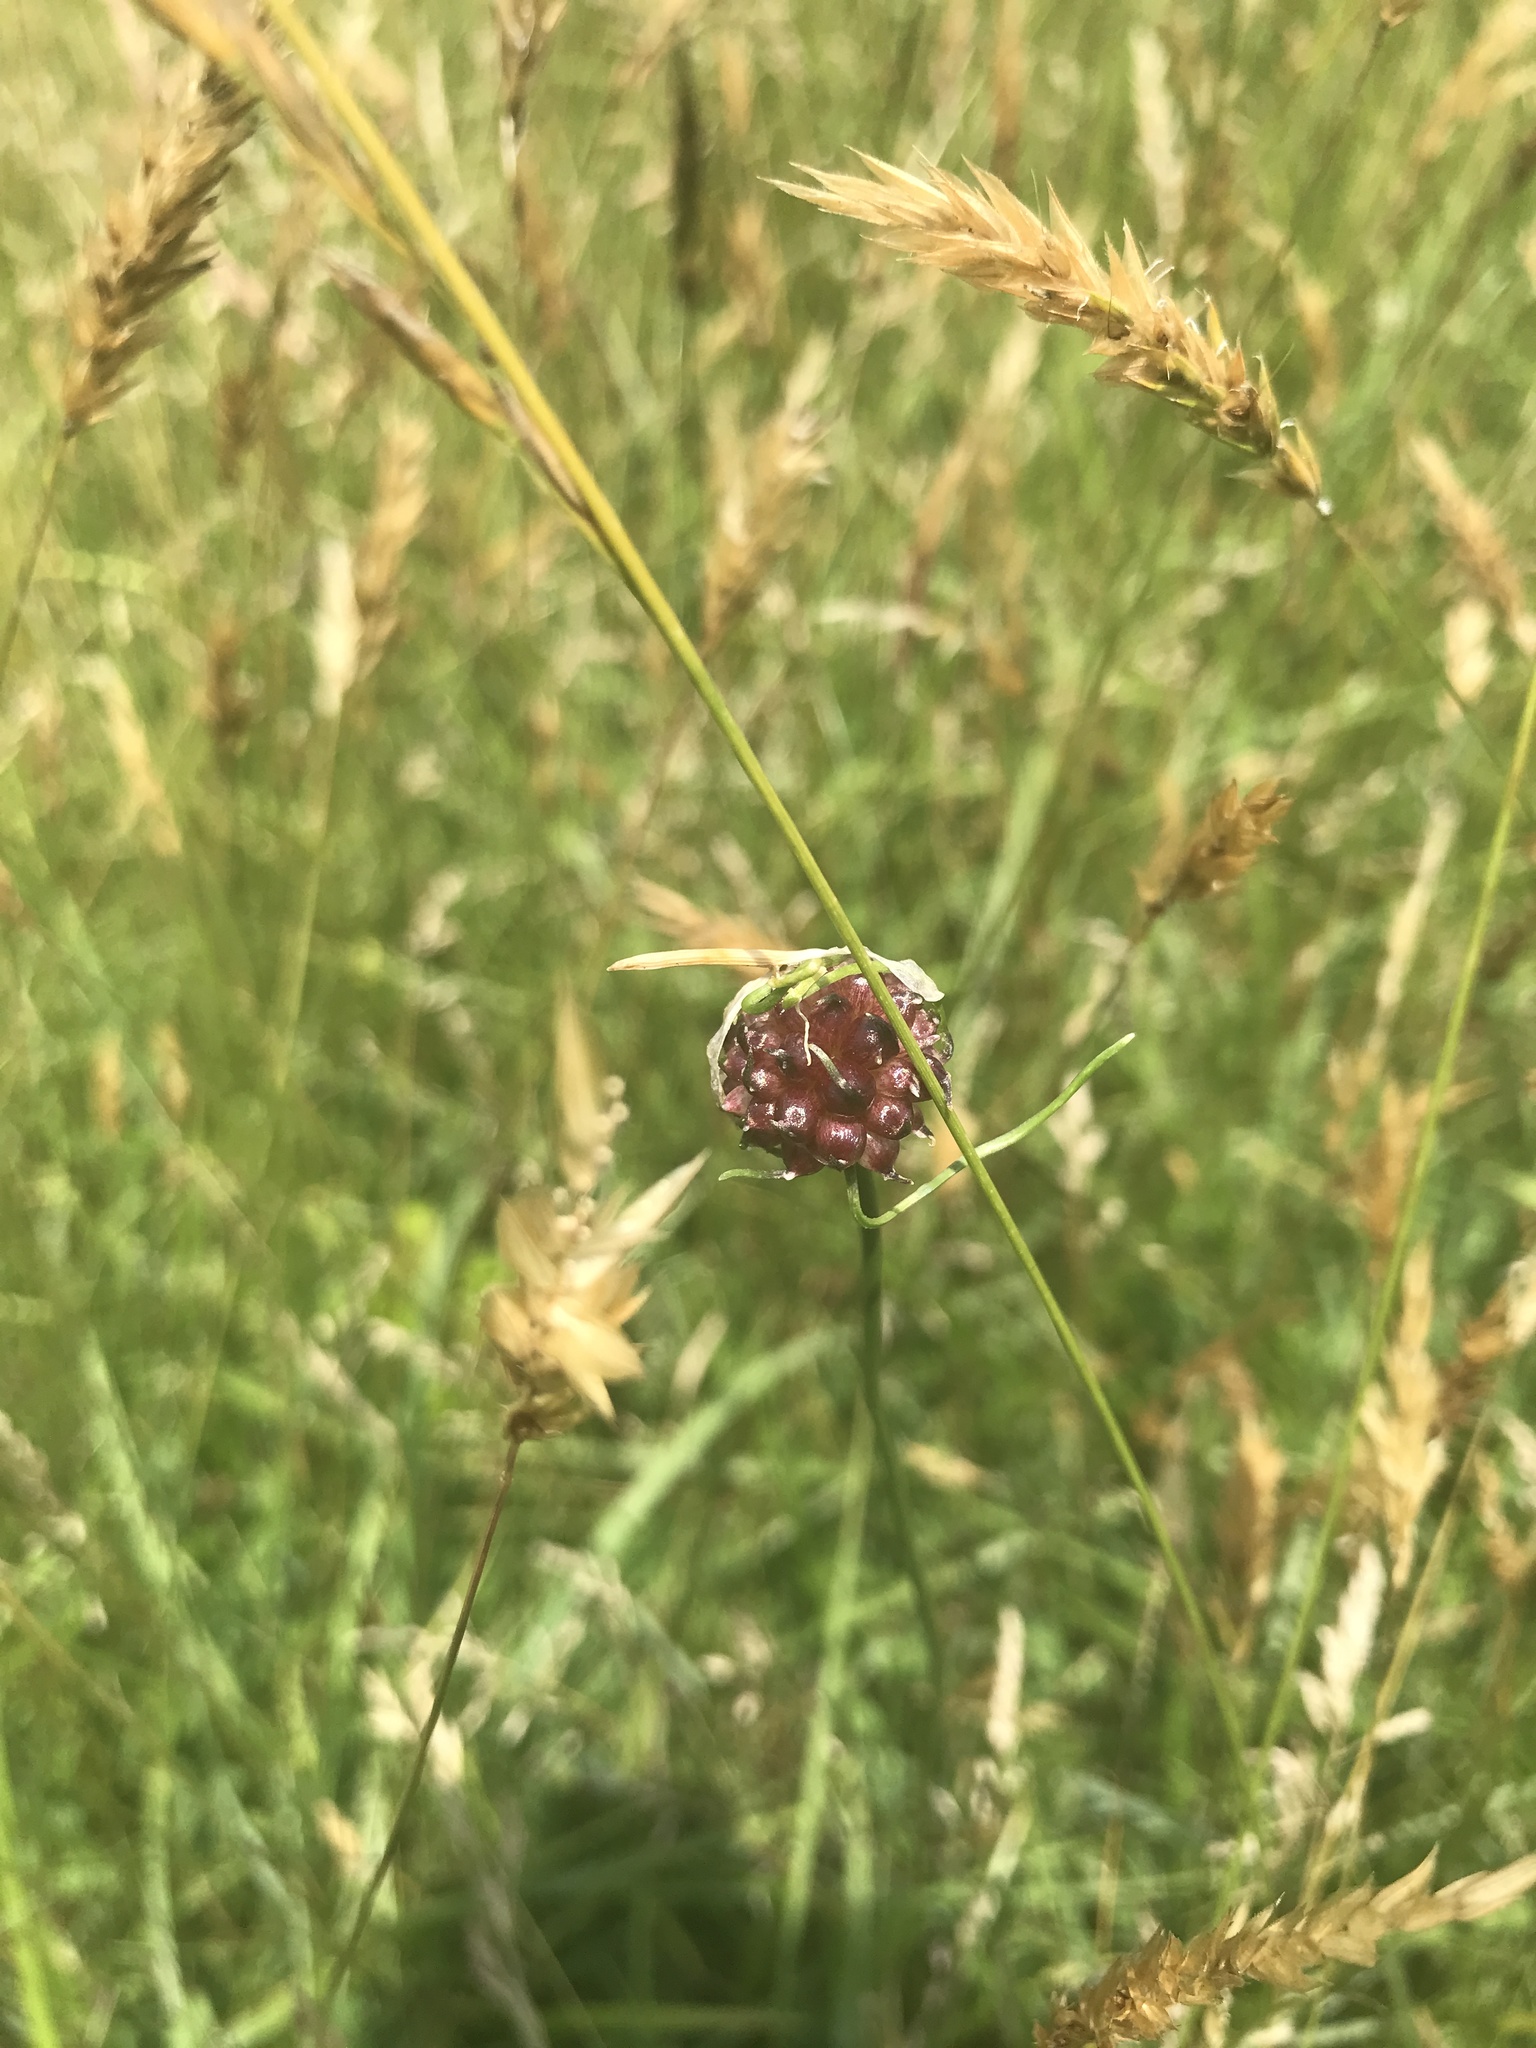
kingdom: Plantae
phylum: Tracheophyta
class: Liliopsida
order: Asparagales
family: Amaryllidaceae
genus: Allium
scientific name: Allium vineale
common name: Crow garlic
